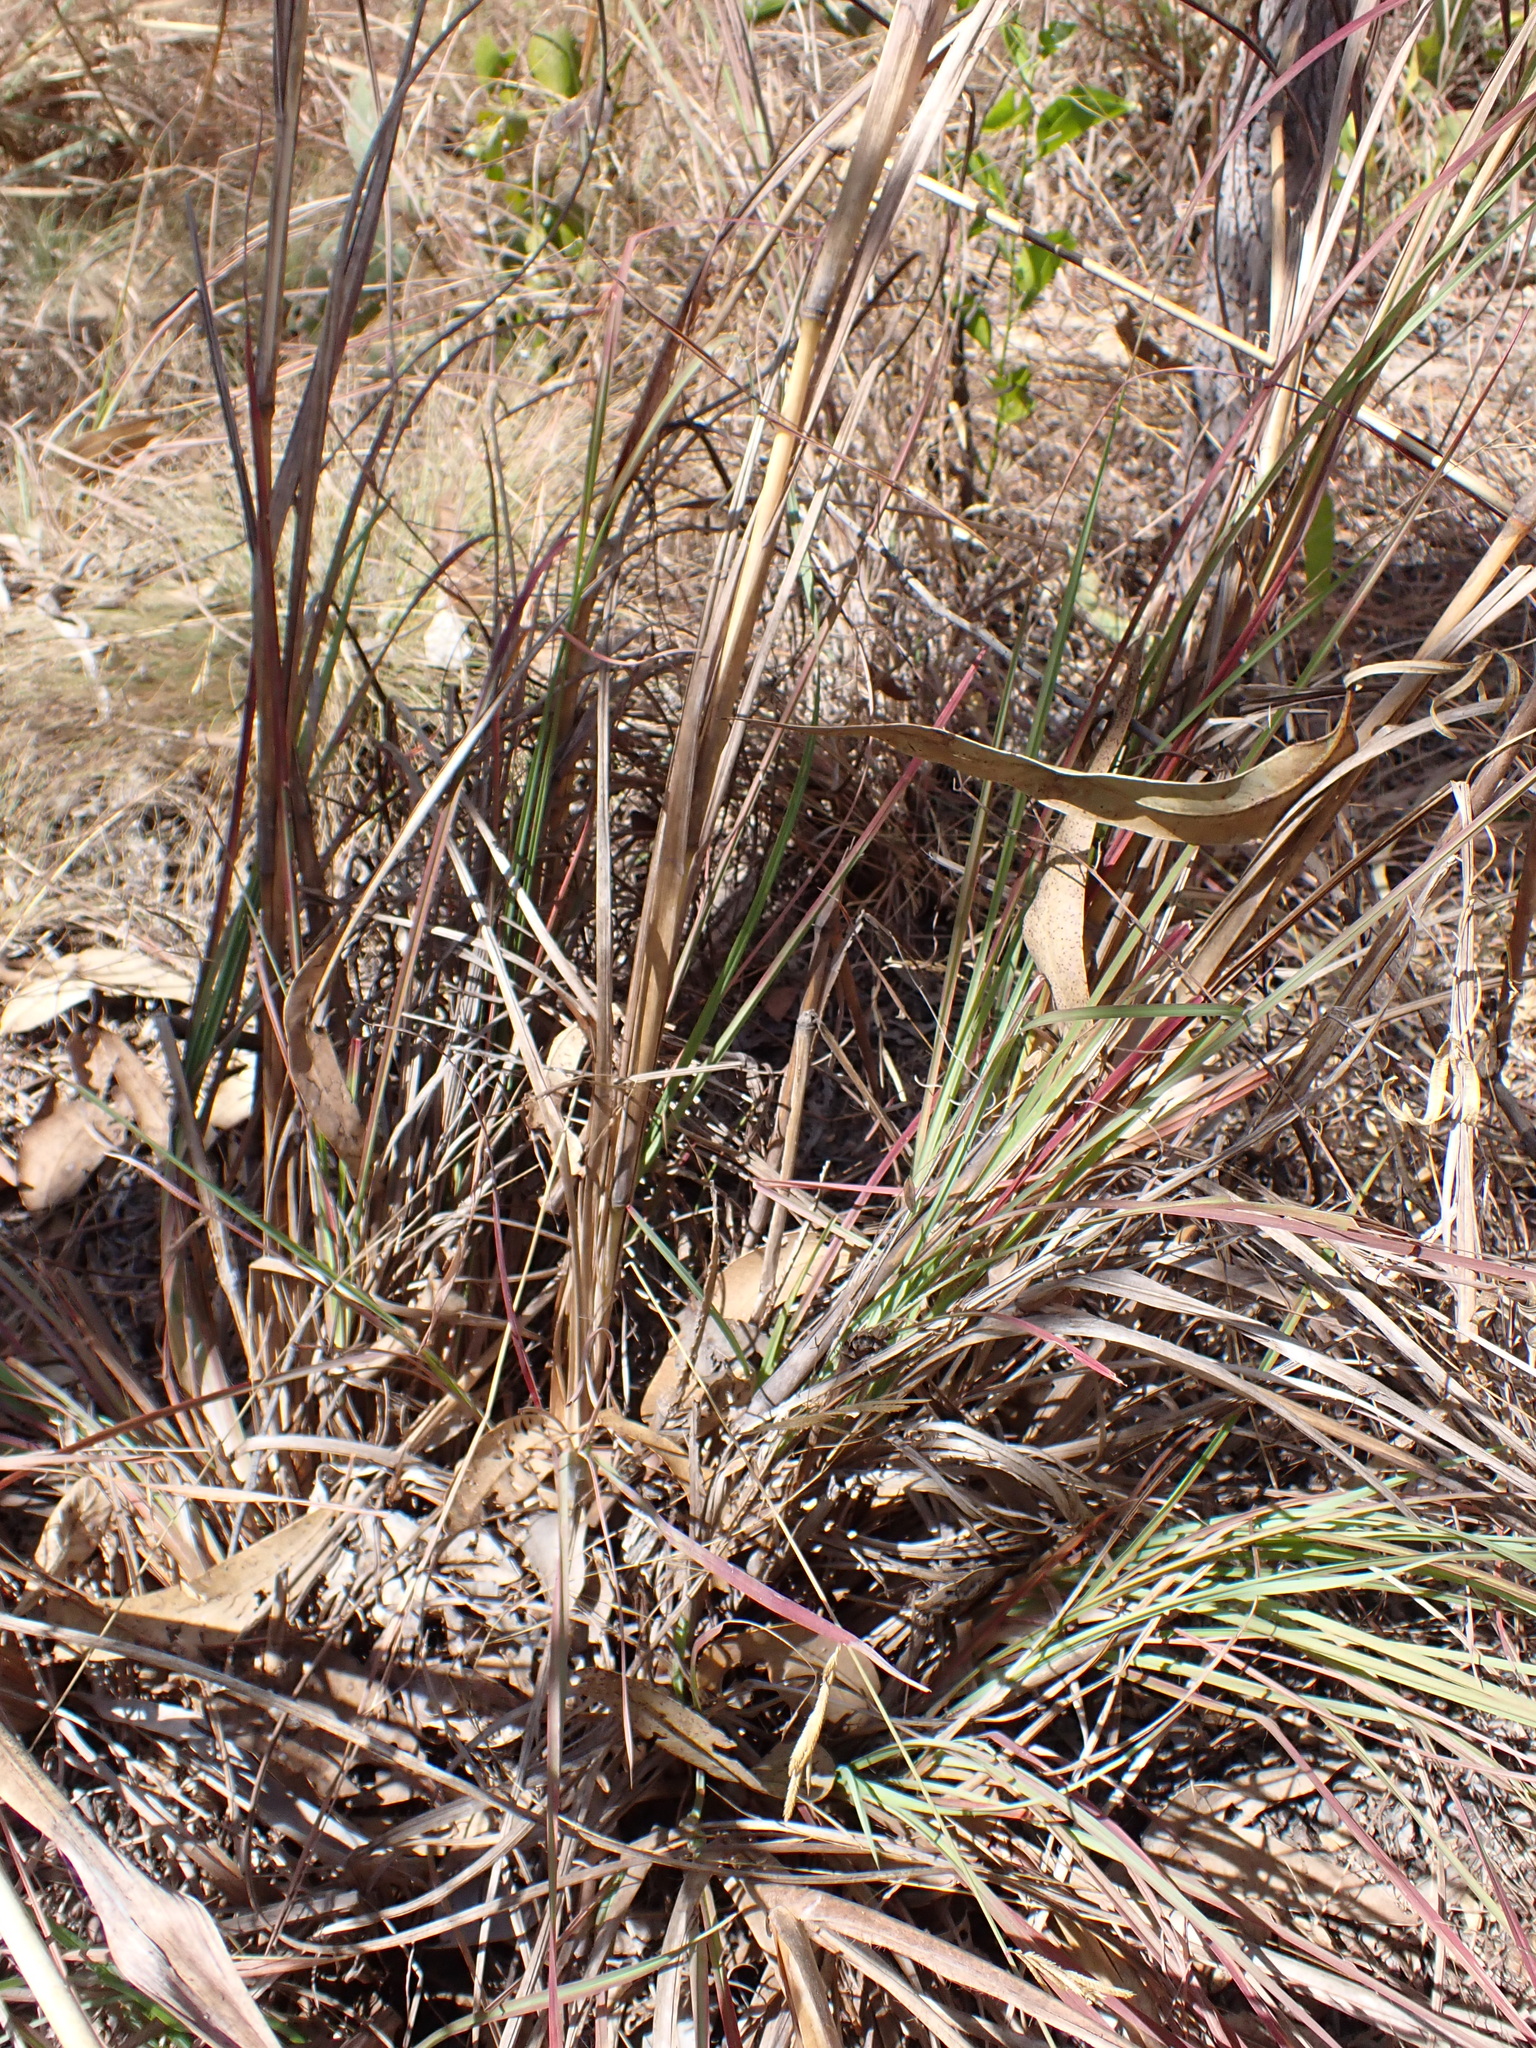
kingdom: Plantae
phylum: Tracheophyta
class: Liliopsida
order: Poales
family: Poaceae
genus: Heteropogon
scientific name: Heteropogon triticeus
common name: Sugar grass
